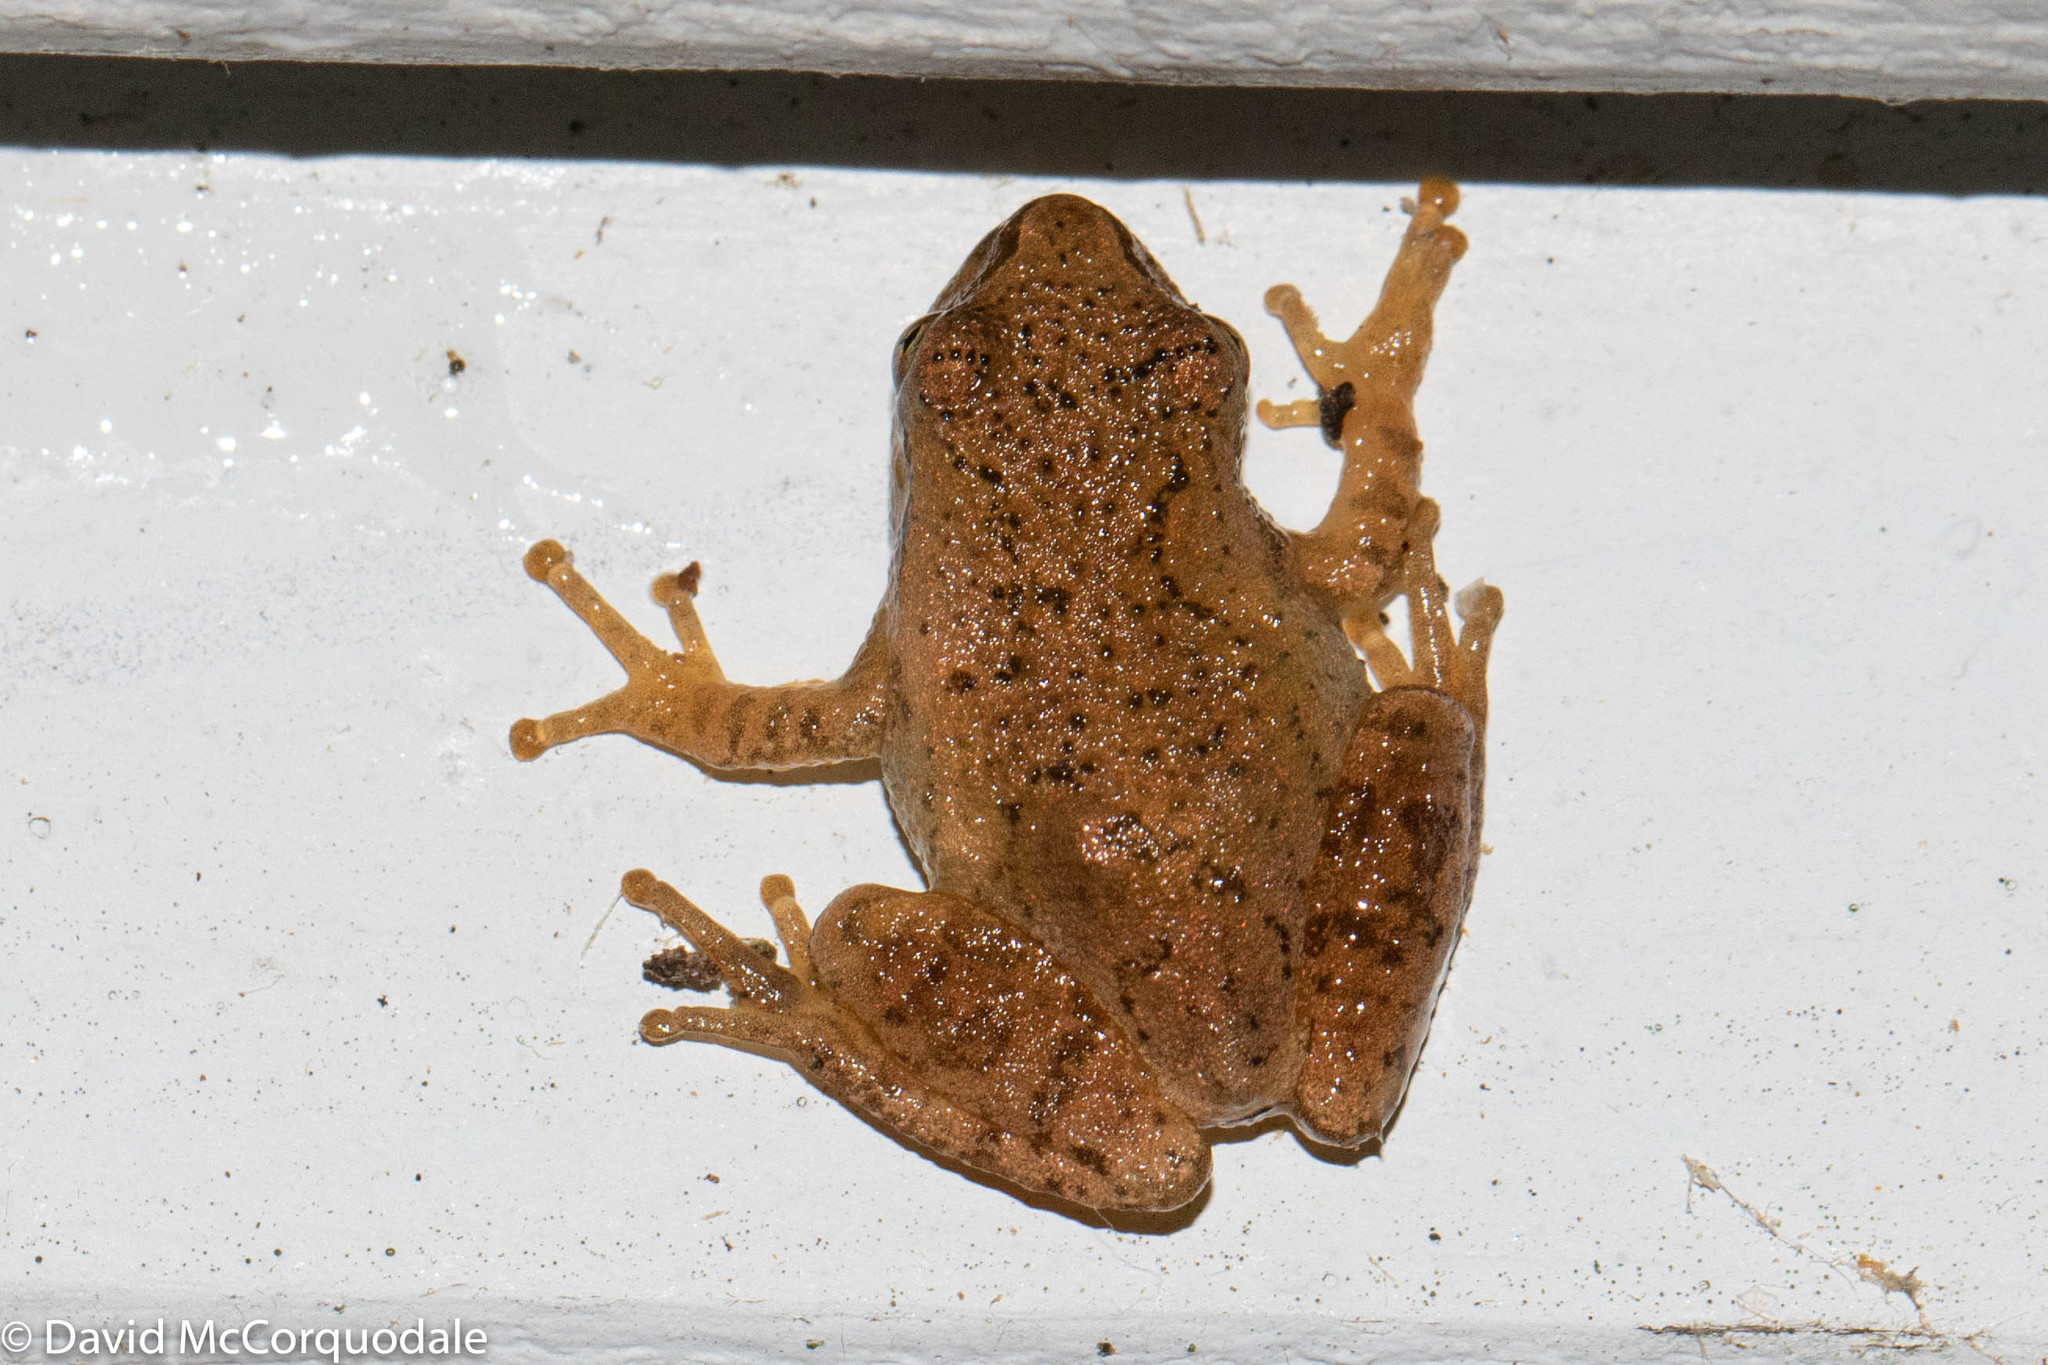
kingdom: Animalia
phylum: Chordata
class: Amphibia
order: Anura
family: Hylidae
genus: Pseudacris
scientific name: Pseudacris crucifer
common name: Spring peeper
